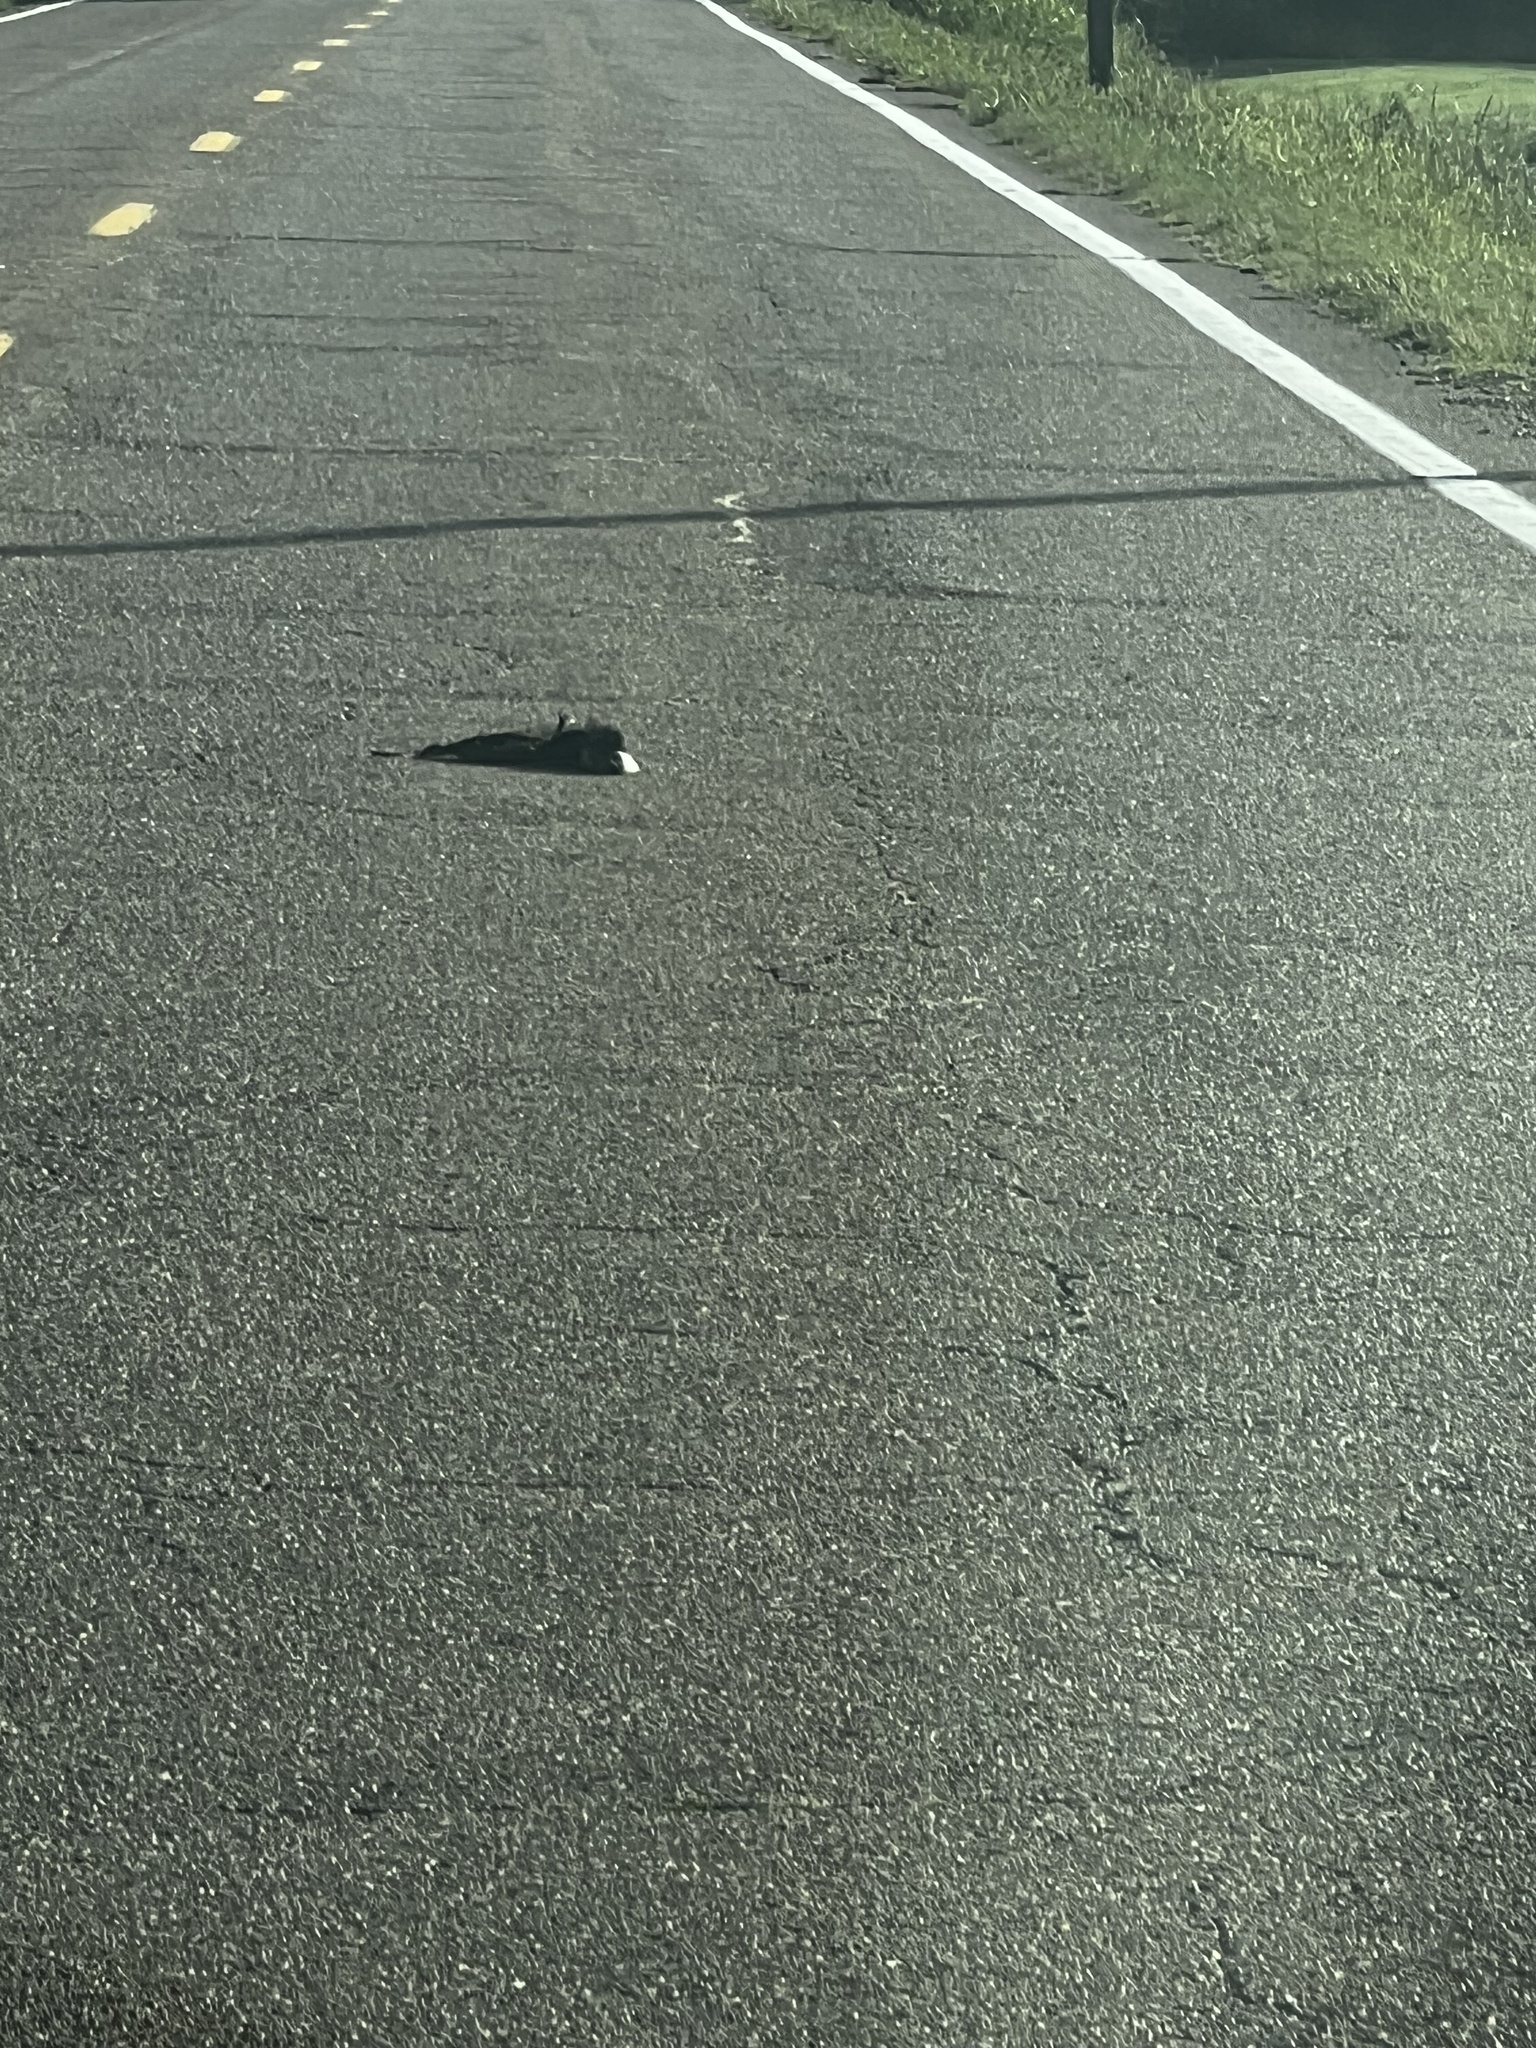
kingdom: Animalia
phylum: Chordata
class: Mammalia
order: Carnivora
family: Mephitidae
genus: Mephitis
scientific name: Mephitis mephitis
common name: Striped skunk
